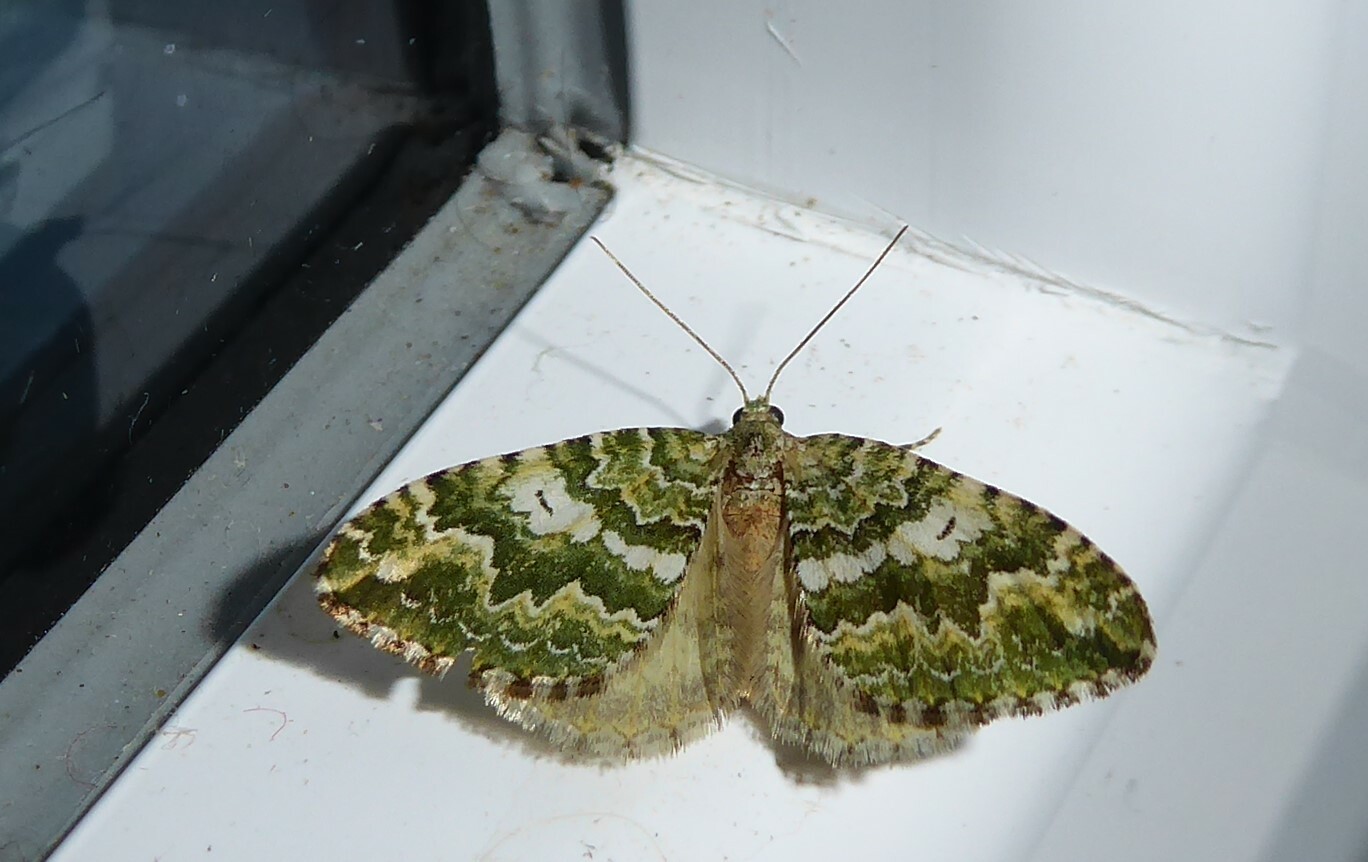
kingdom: Animalia
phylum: Arthropoda
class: Insecta
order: Lepidoptera
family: Geometridae
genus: Asaphodes
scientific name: Asaphodes beata
